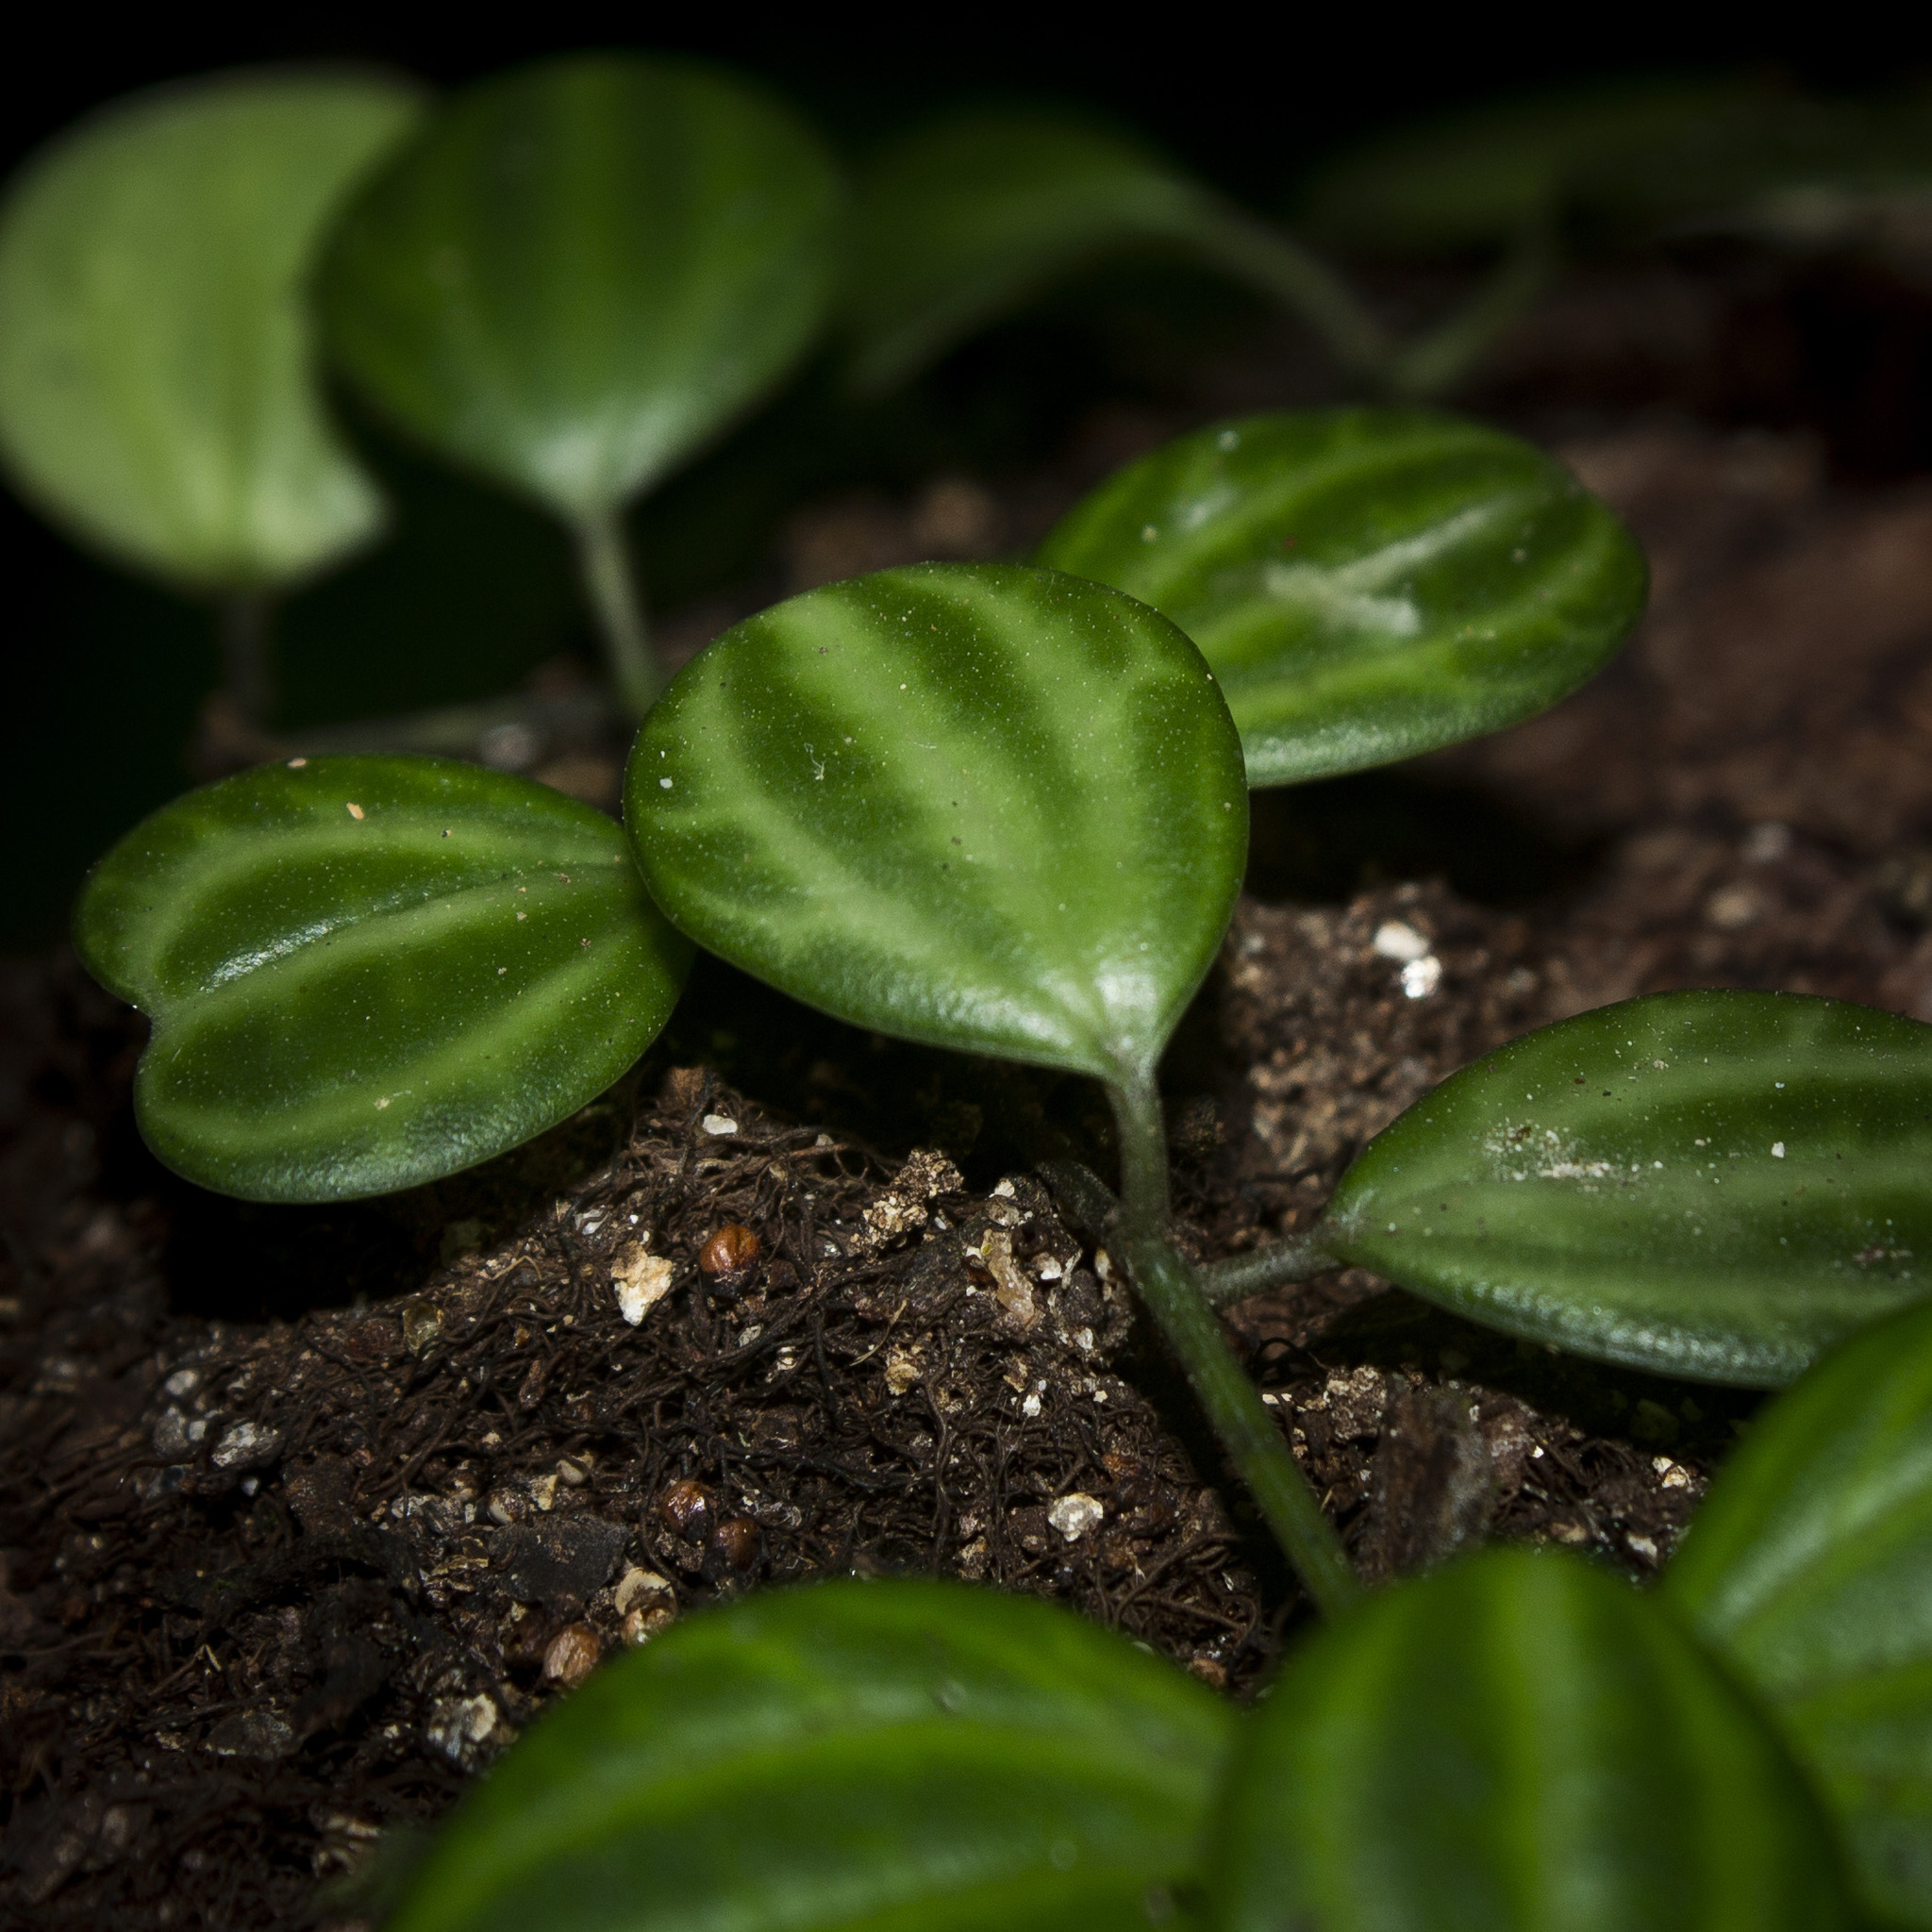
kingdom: Plantae
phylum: Tracheophyta
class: Magnoliopsida
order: Piperales
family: Piperaceae
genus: Peperomia
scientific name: Peperomia quadrangularis
